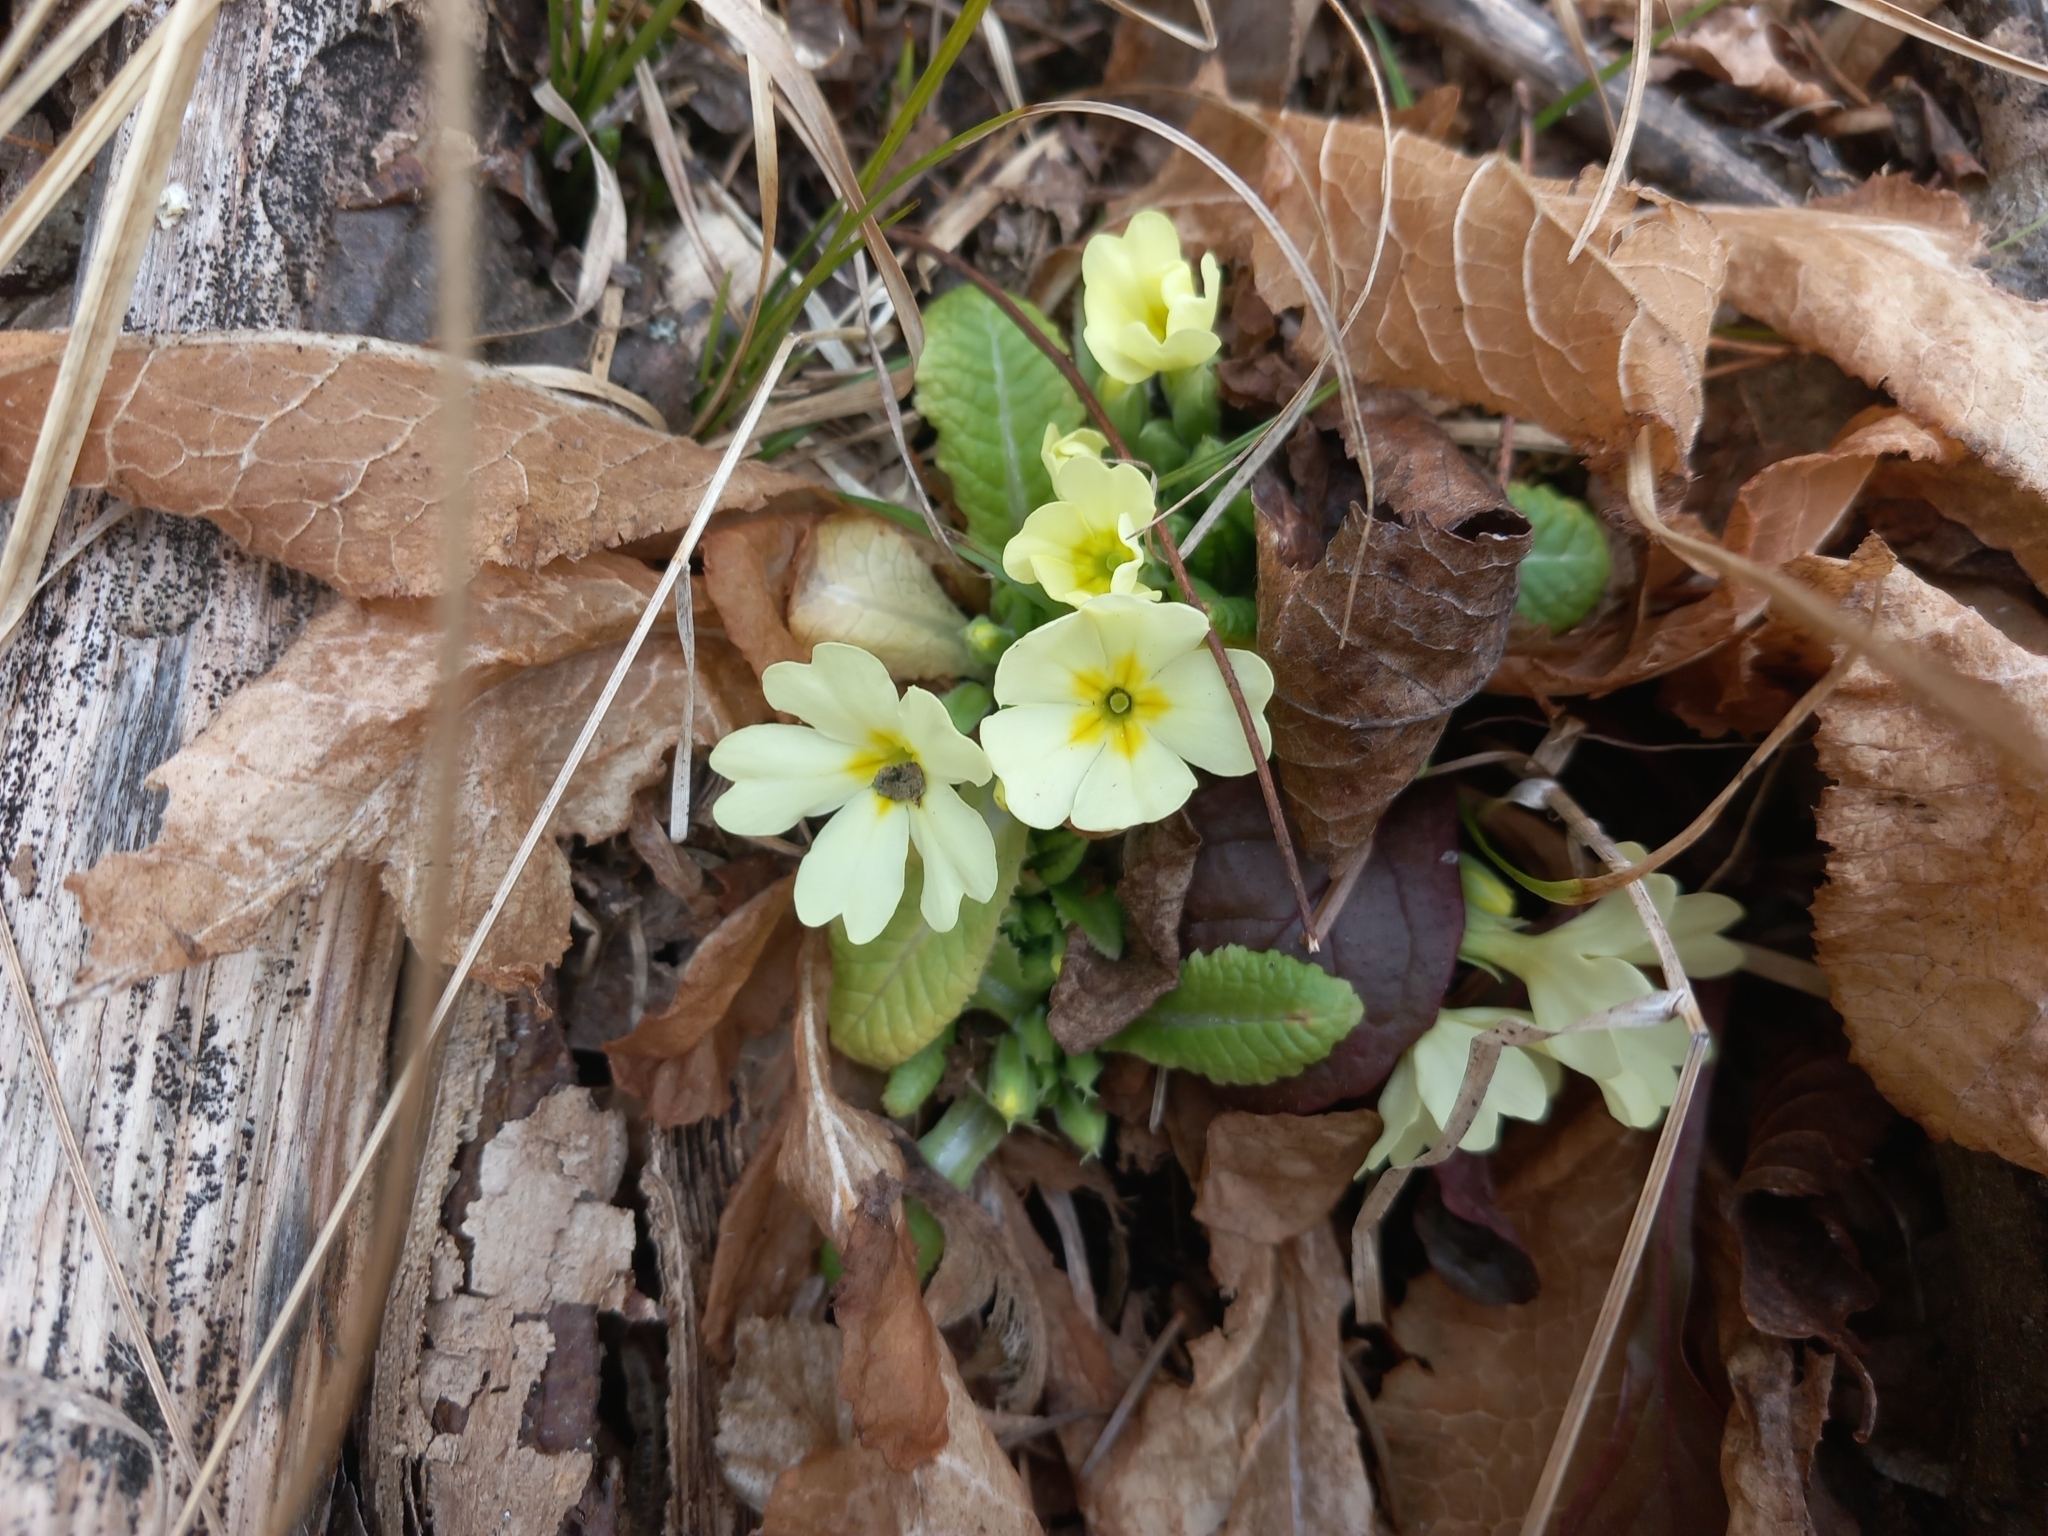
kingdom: Plantae
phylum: Tracheophyta
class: Magnoliopsida
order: Ericales
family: Primulaceae
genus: Primula
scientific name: Primula vulgaris
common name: Primrose
